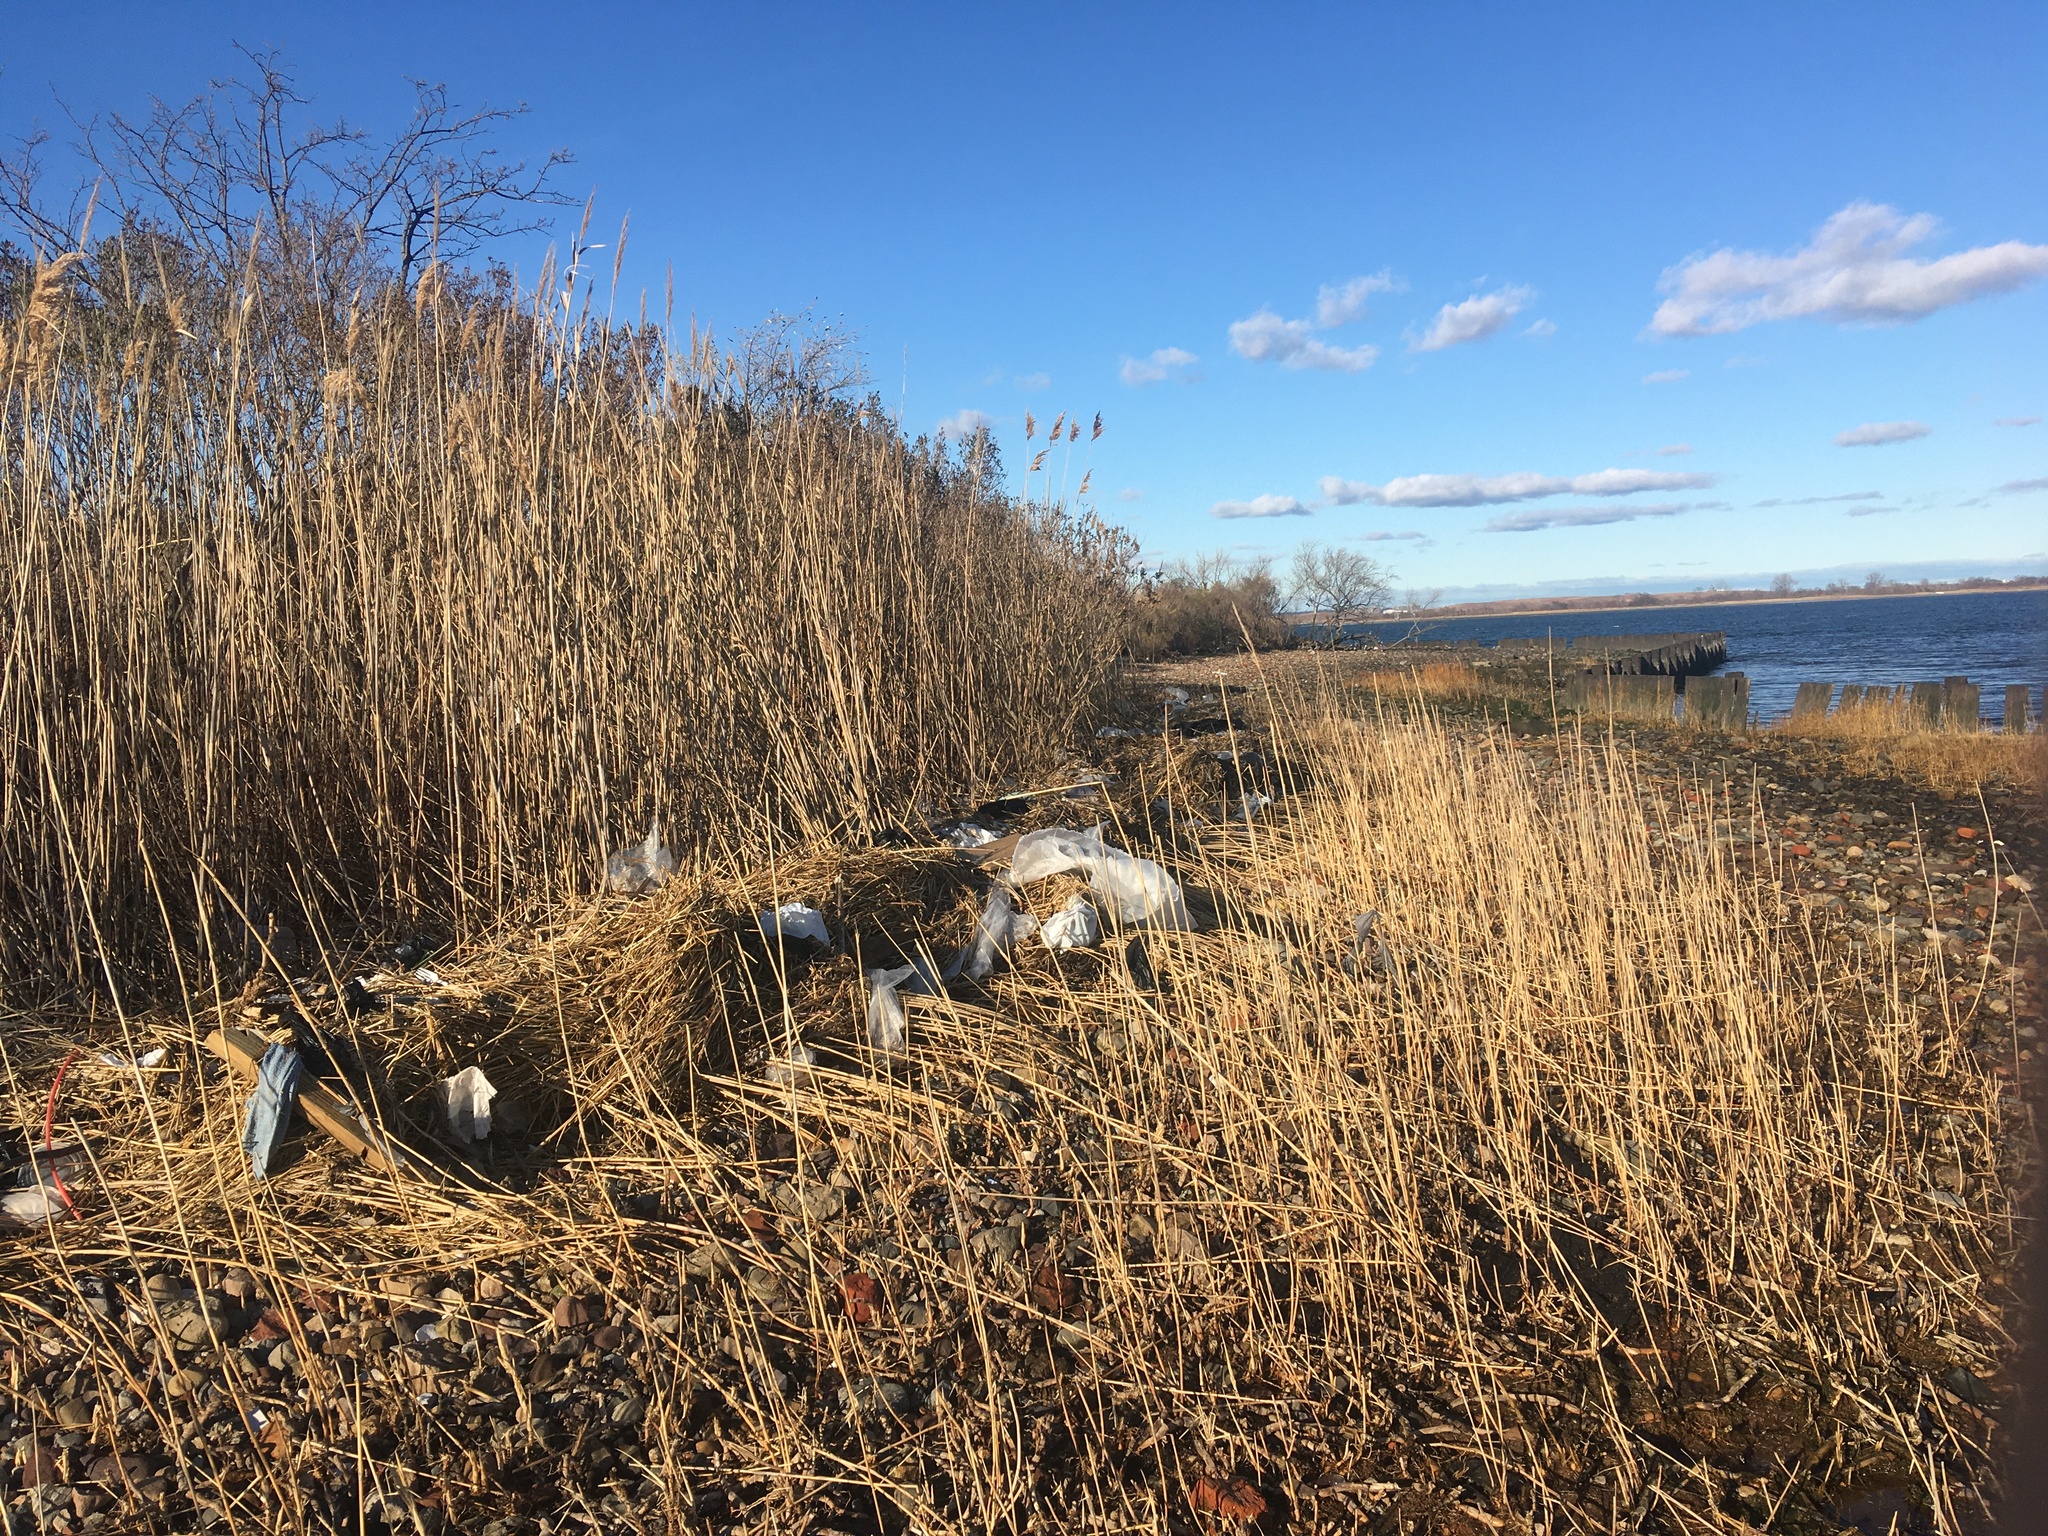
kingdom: Plantae
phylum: Tracheophyta
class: Liliopsida
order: Poales
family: Poaceae
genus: Sporobolus
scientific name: Sporobolus alterniflorus
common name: Atlantic cordgrass
